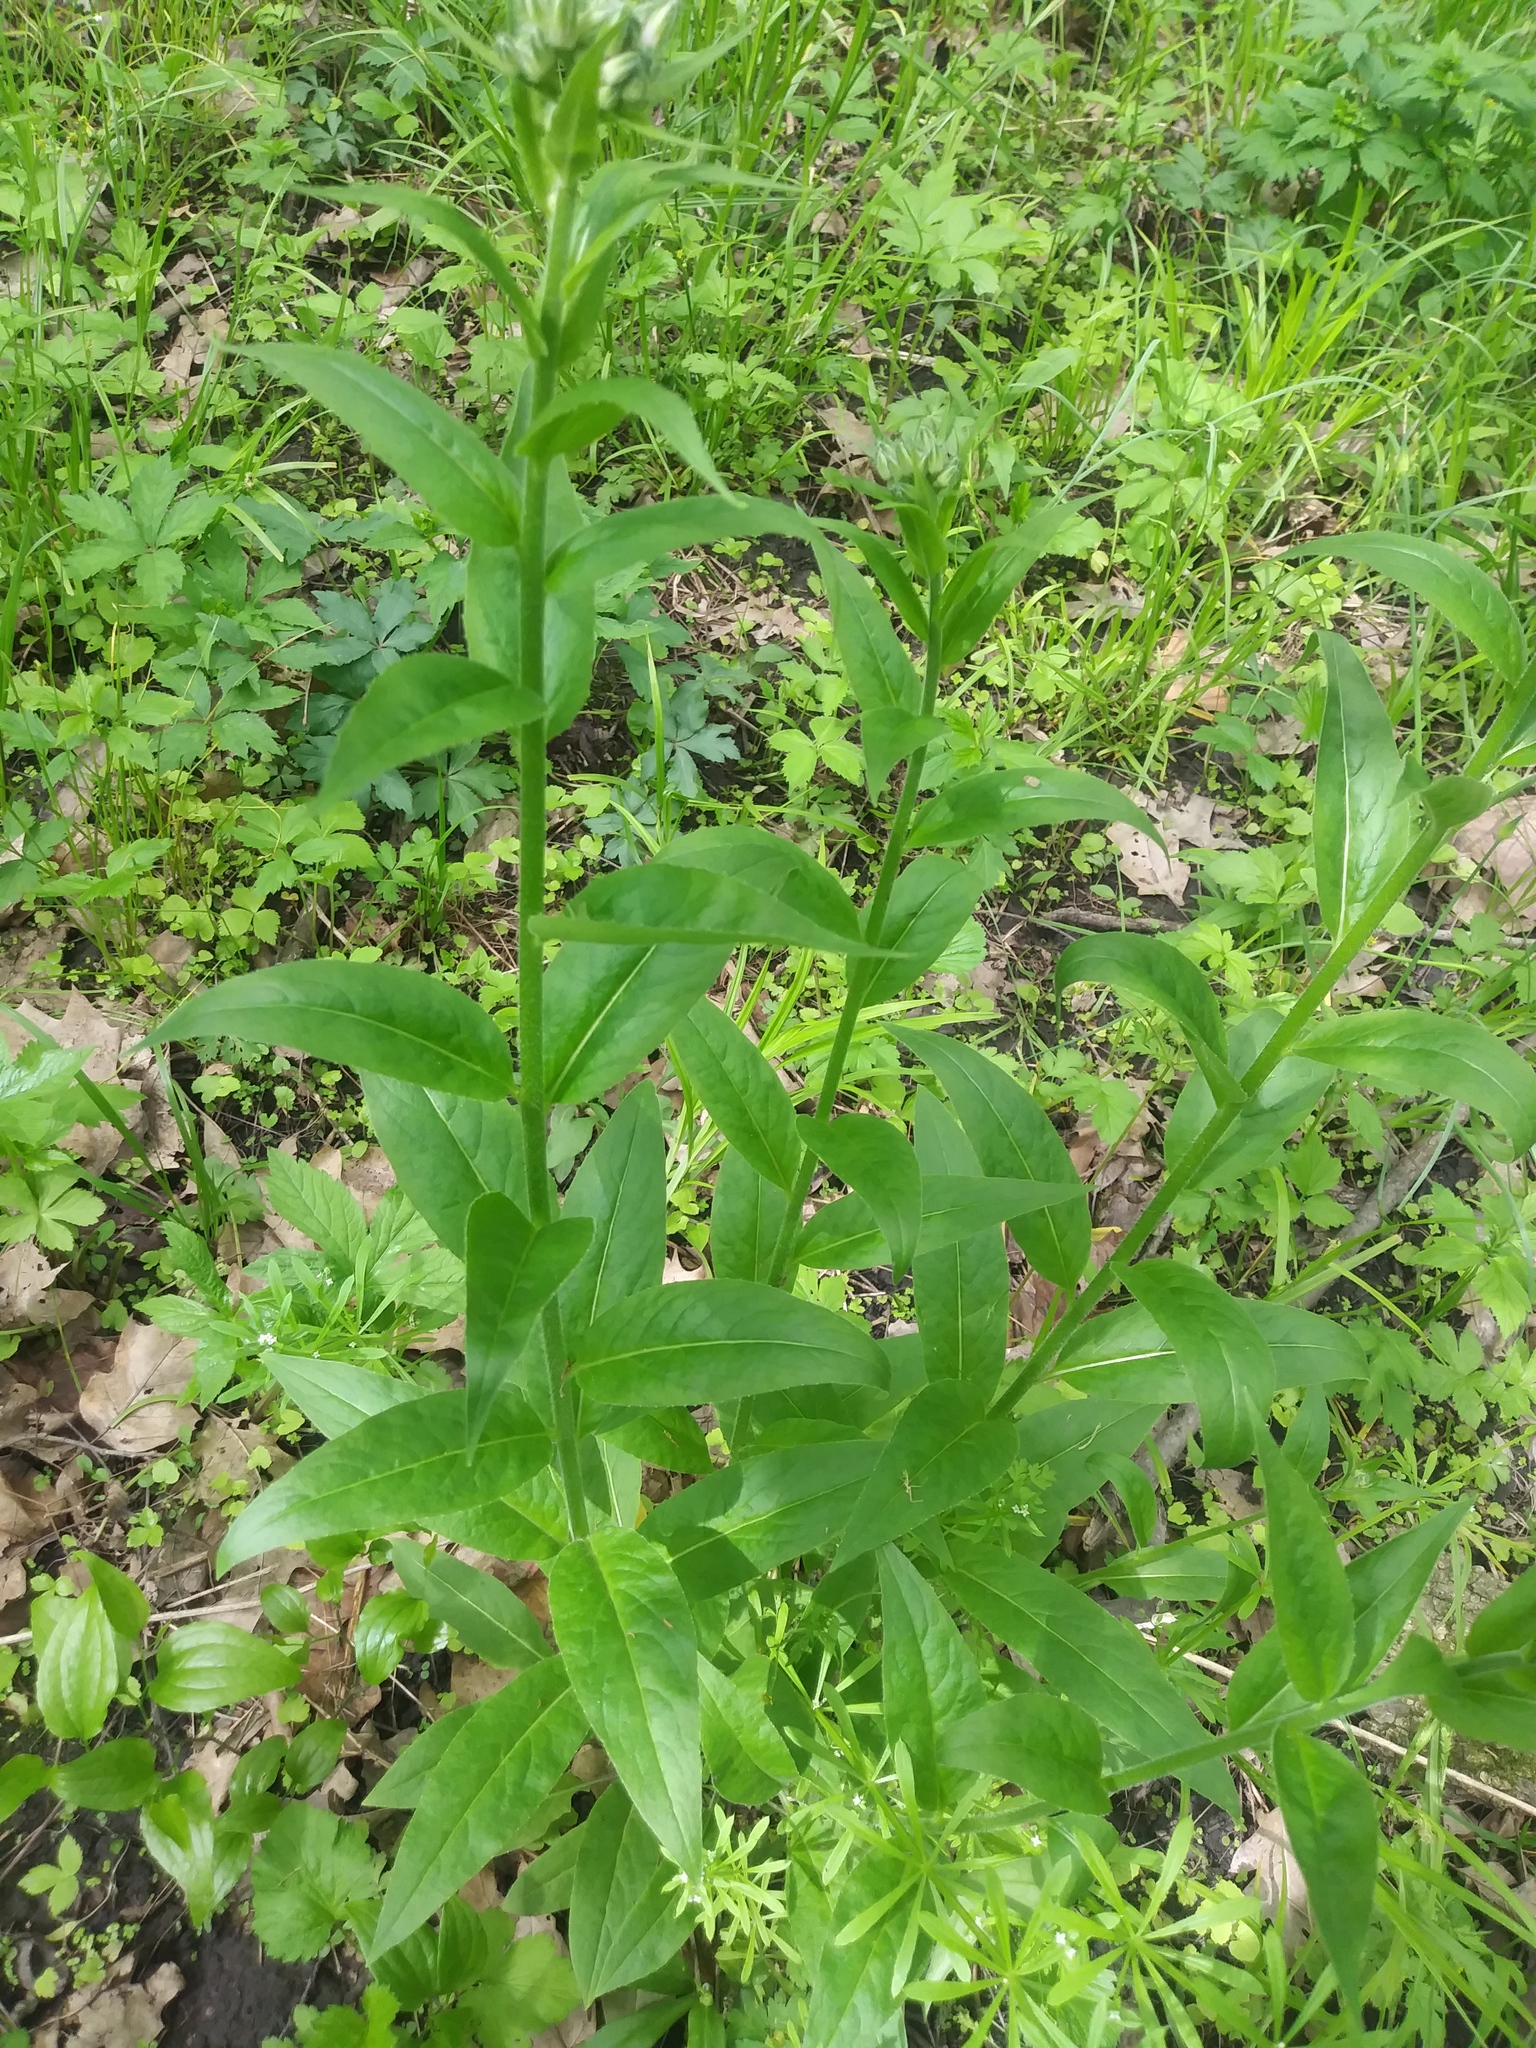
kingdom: Plantae
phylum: Tracheophyta
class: Magnoliopsida
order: Brassicales
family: Brassicaceae
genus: Hesperis
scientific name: Hesperis matronalis
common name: Dame's-violet
